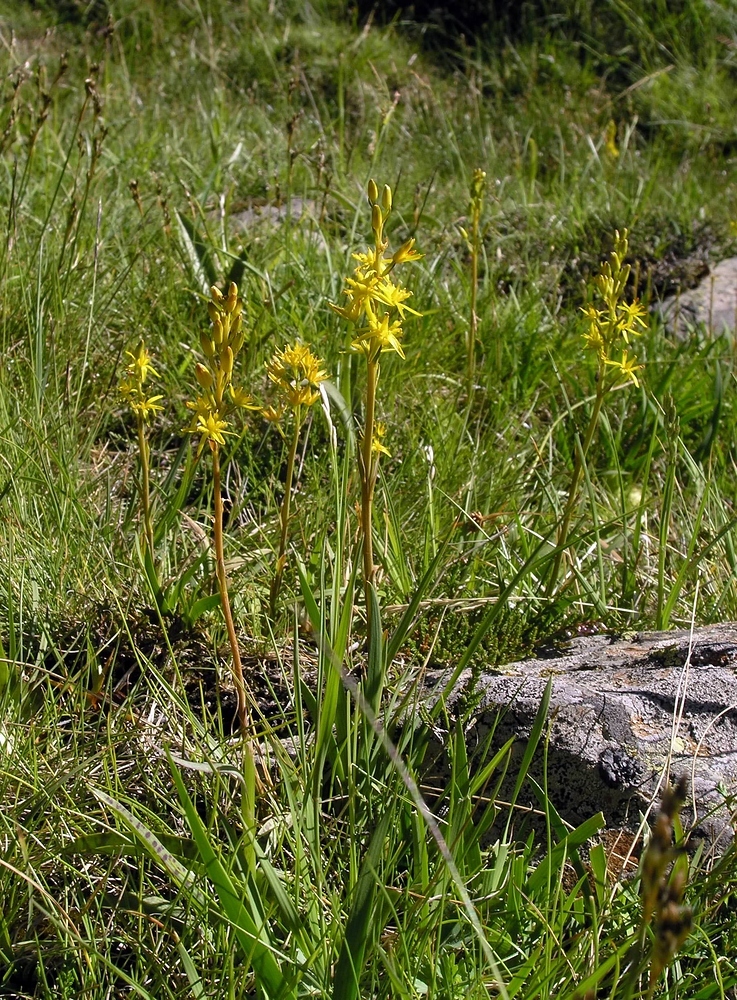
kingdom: Plantae
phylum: Tracheophyta
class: Liliopsida
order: Dioscoreales
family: Nartheciaceae
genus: Narthecium
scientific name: Narthecium ossifragum
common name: Bog asphodel
